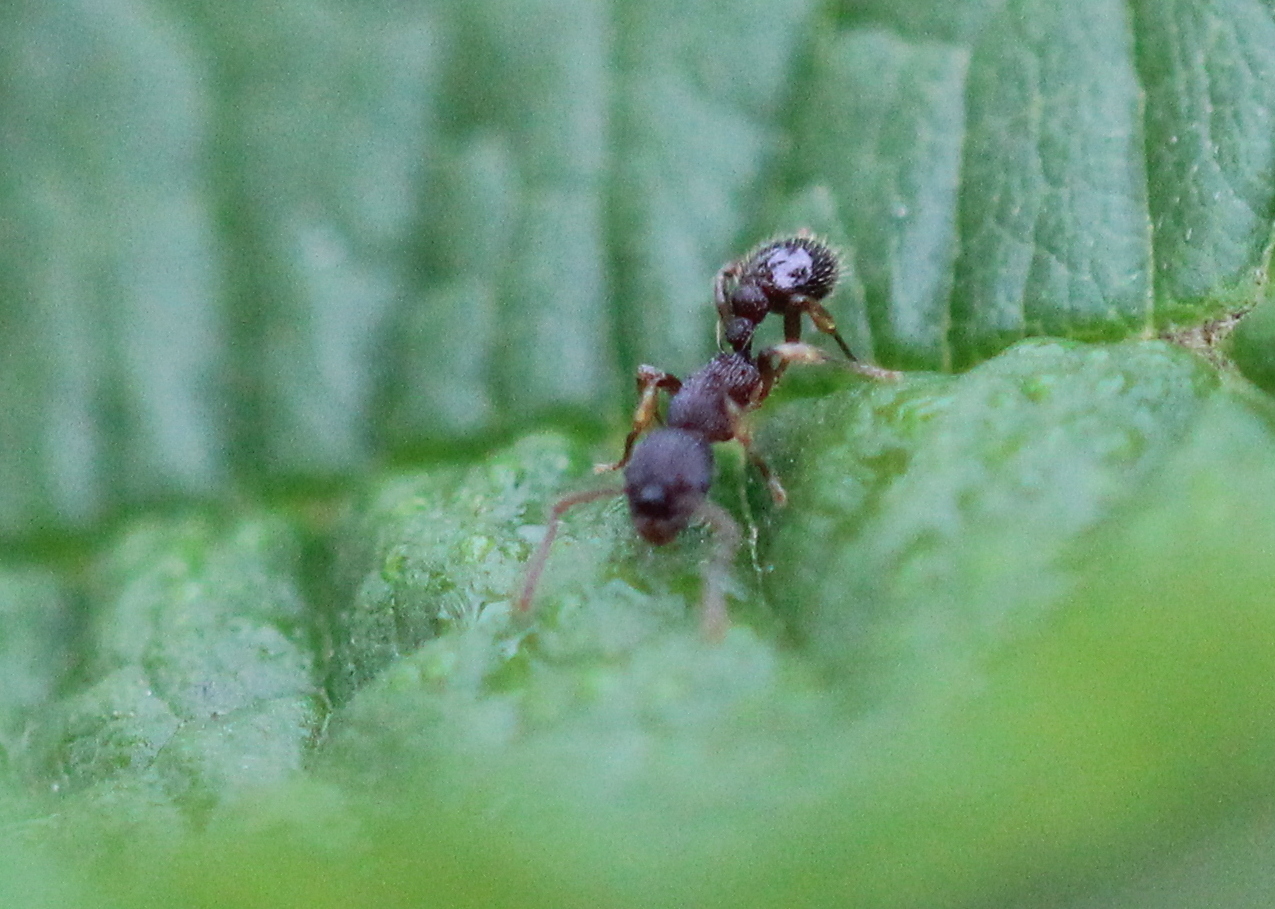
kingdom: Animalia
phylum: Arthropoda
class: Insecta
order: Hymenoptera
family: Formicidae
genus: Myrmica
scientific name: Myrmica punctiventris
